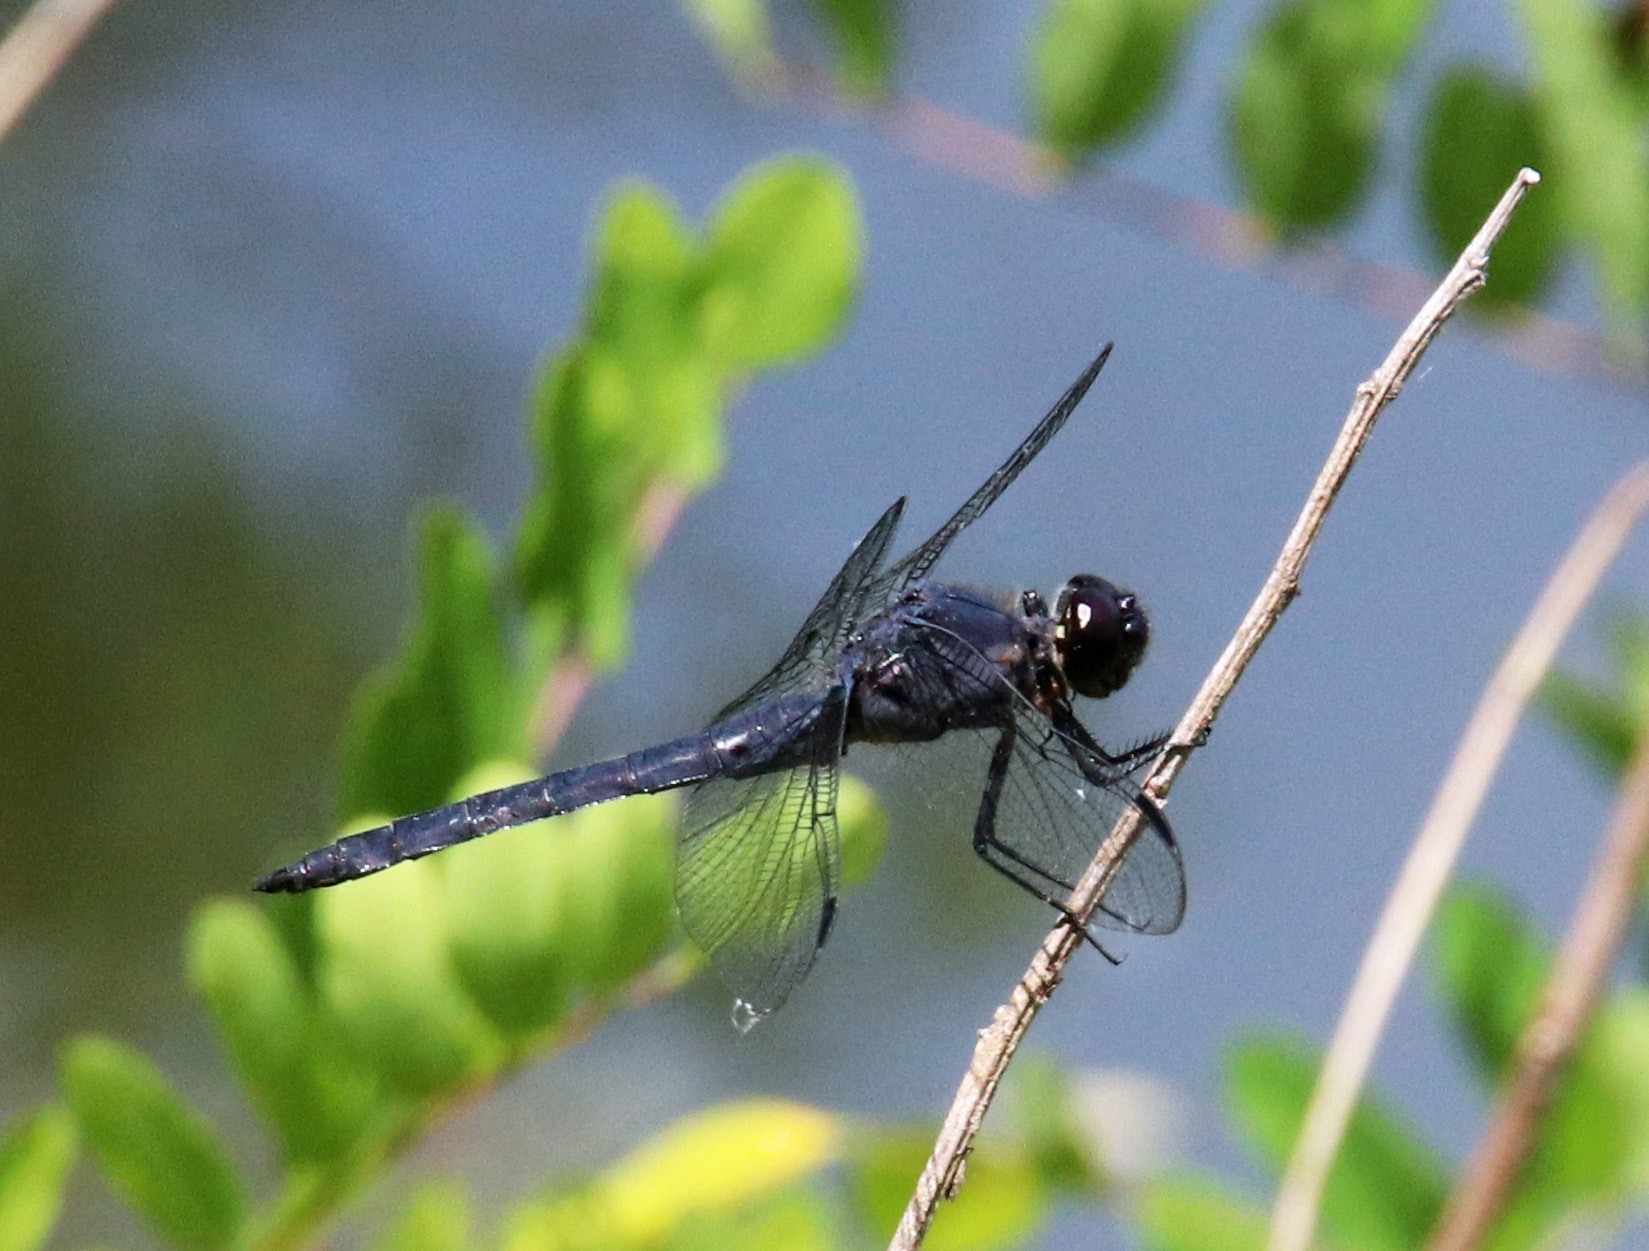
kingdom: Animalia
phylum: Arthropoda
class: Insecta
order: Odonata
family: Libellulidae
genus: Libellula
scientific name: Libellula incesta
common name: Slaty skimmer
